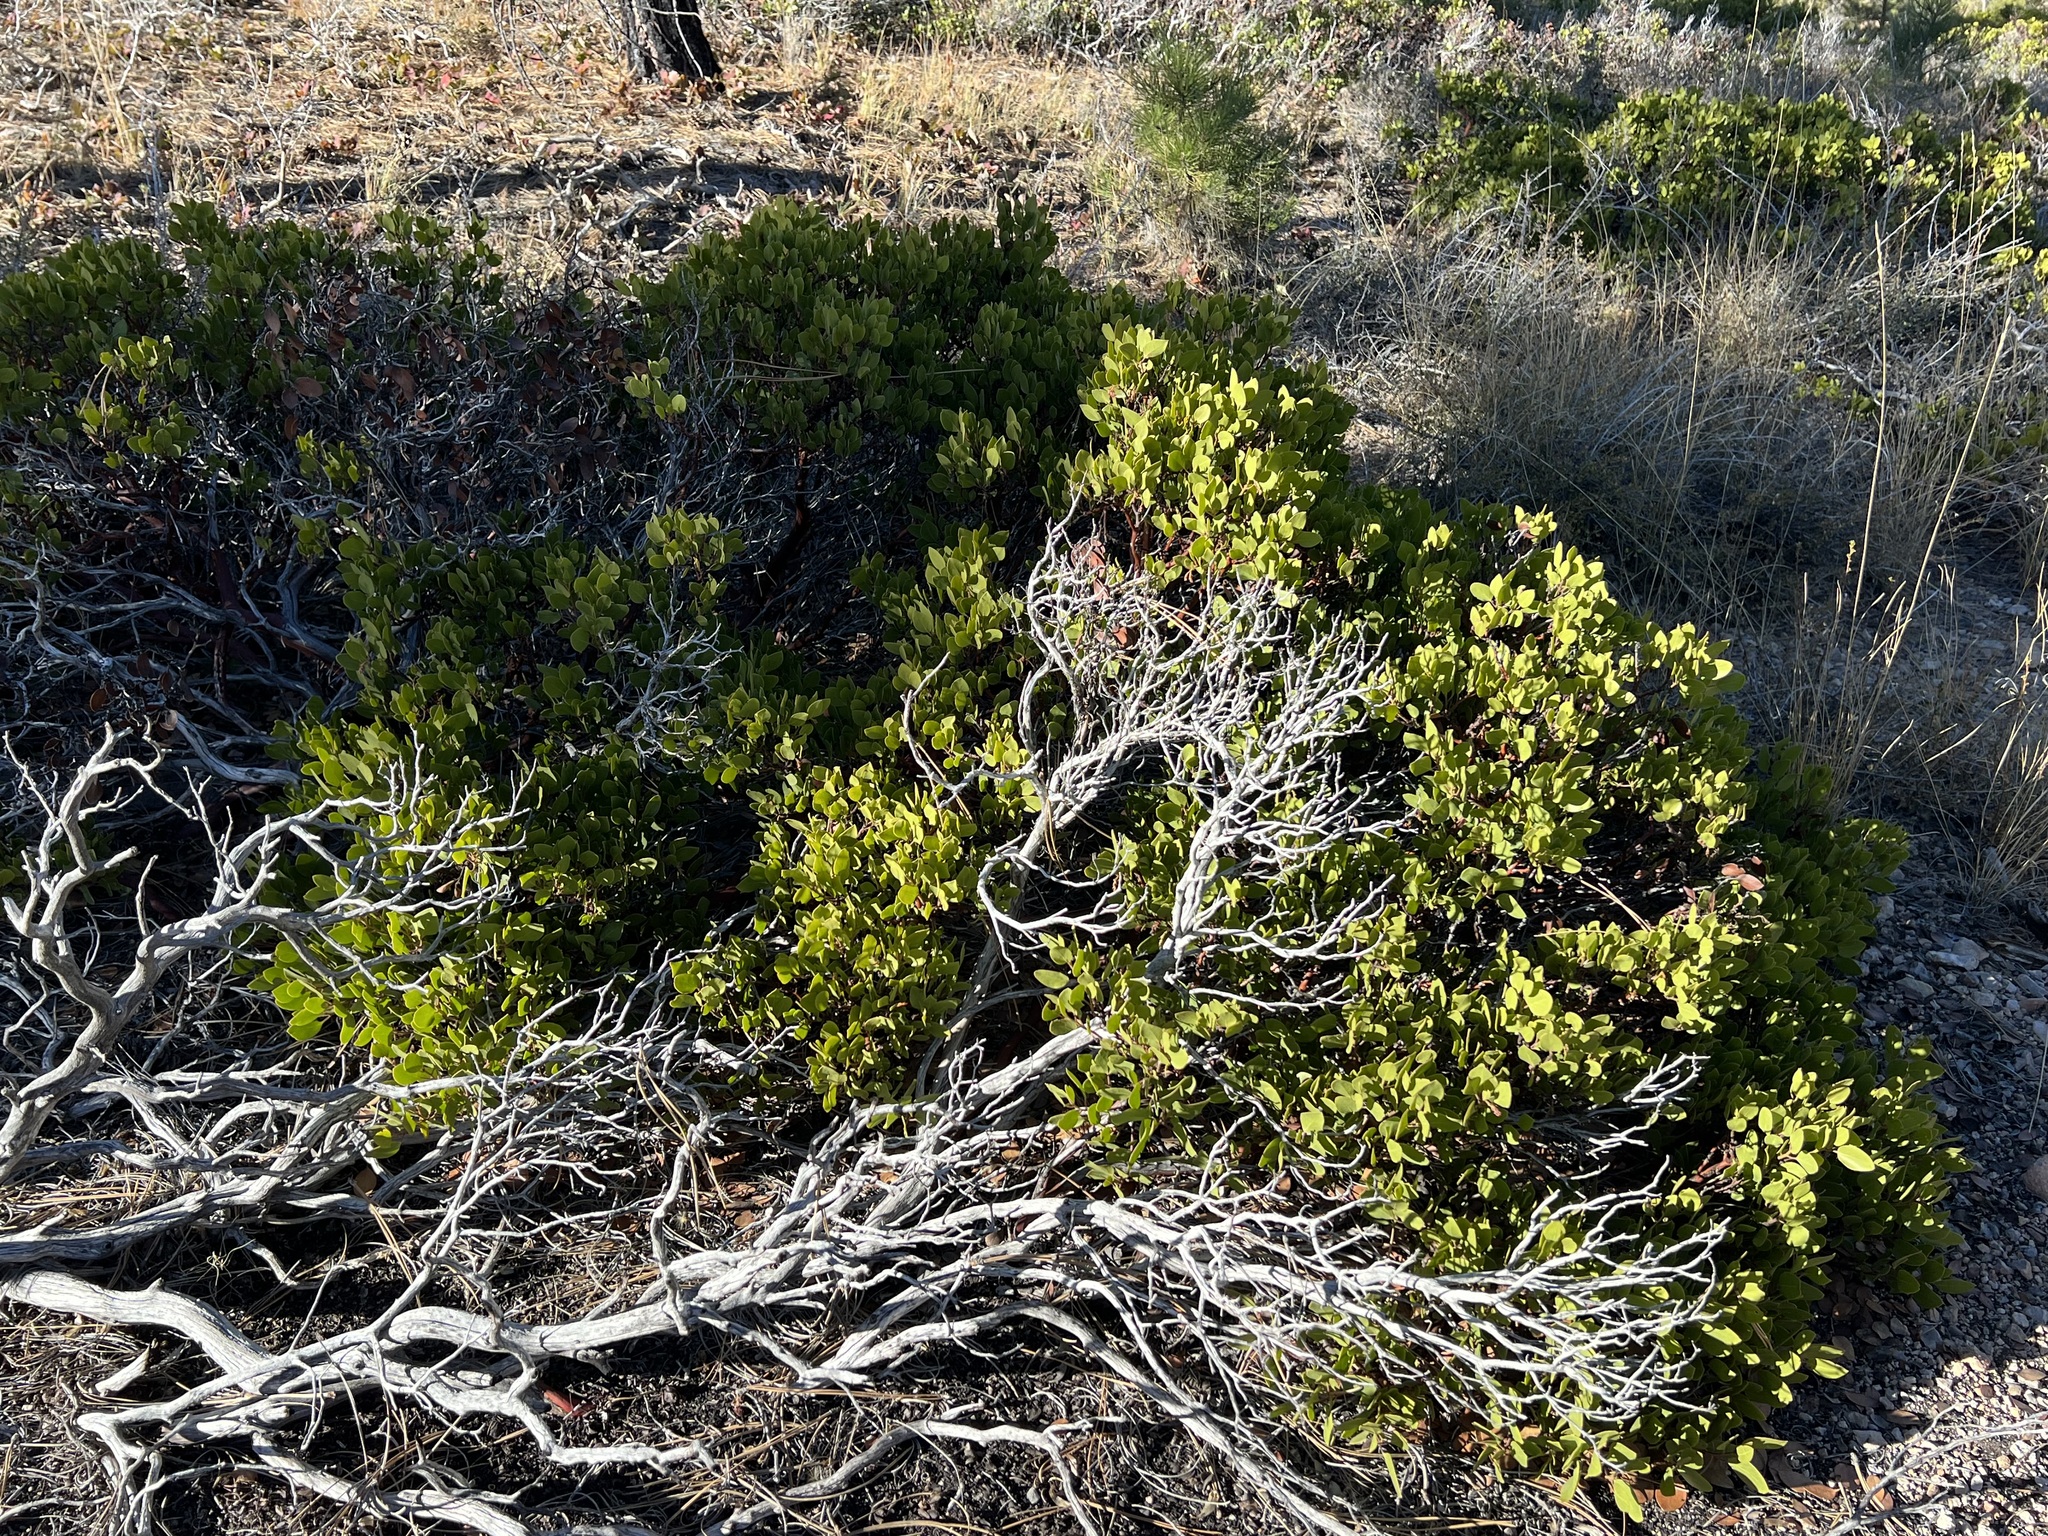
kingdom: Plantae
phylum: Tracheophyta
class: Magnoliopsida
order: Ericales
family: Ericaceae
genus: Arctostaphylos
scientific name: Arctostaphylos patula
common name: Green-leaf manzanita
